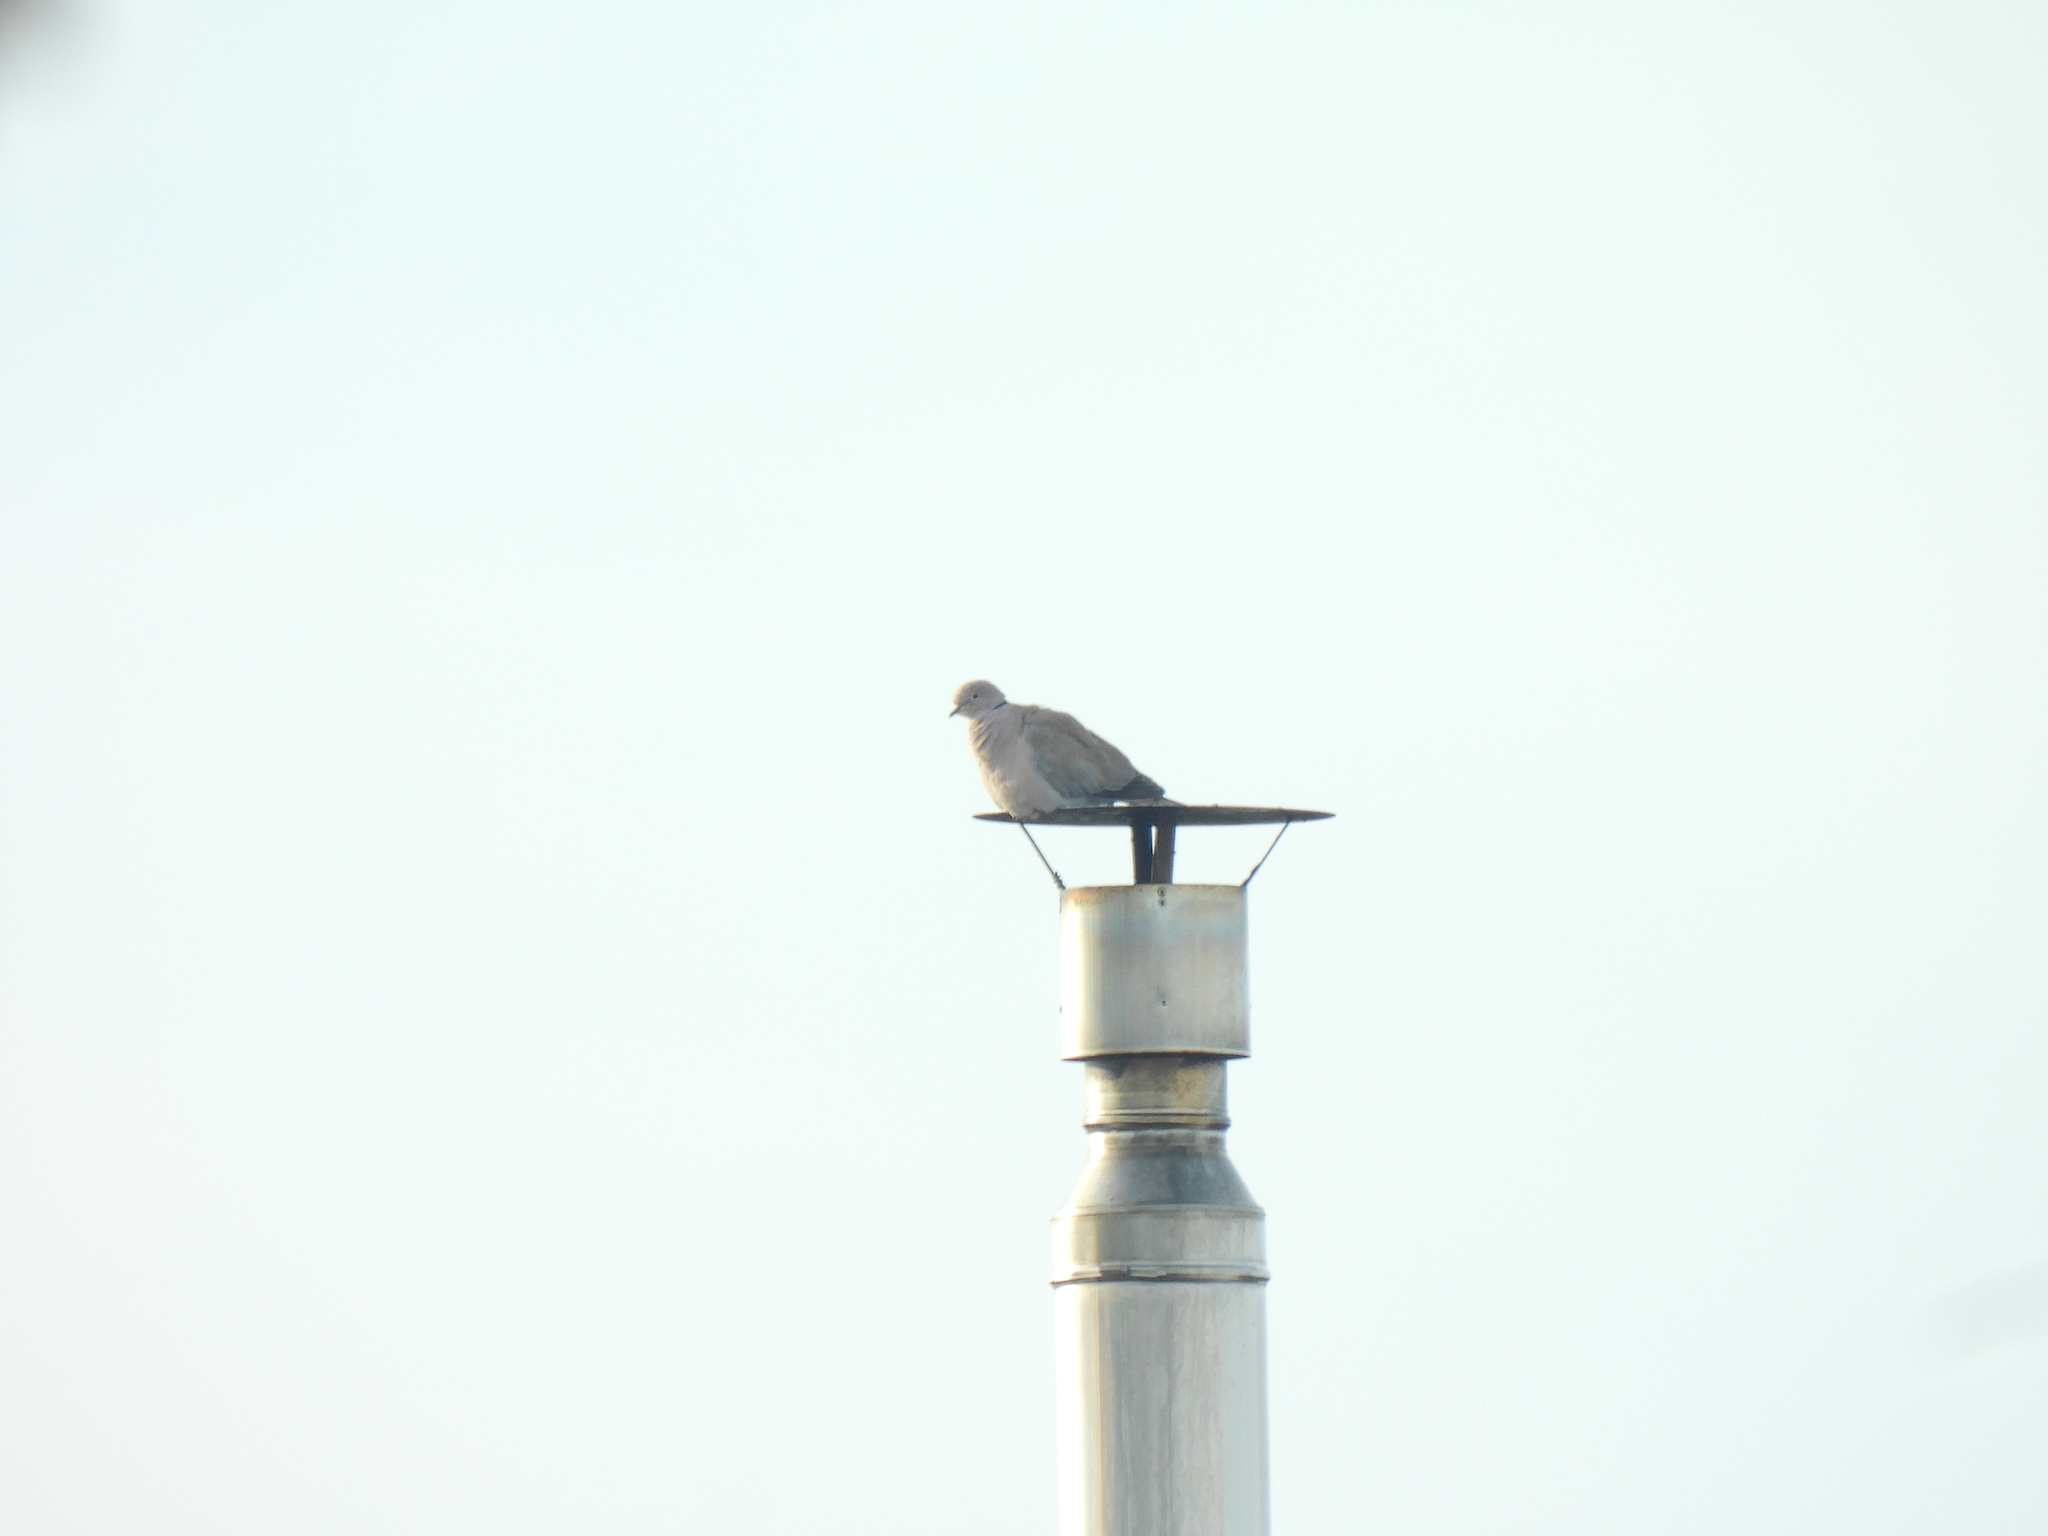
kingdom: Animalia
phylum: Chordata
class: Aves
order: Columbiformes
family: Columbidae
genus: Streptopelia
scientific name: Streptopelia decaocto
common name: Eurasian collared dove
